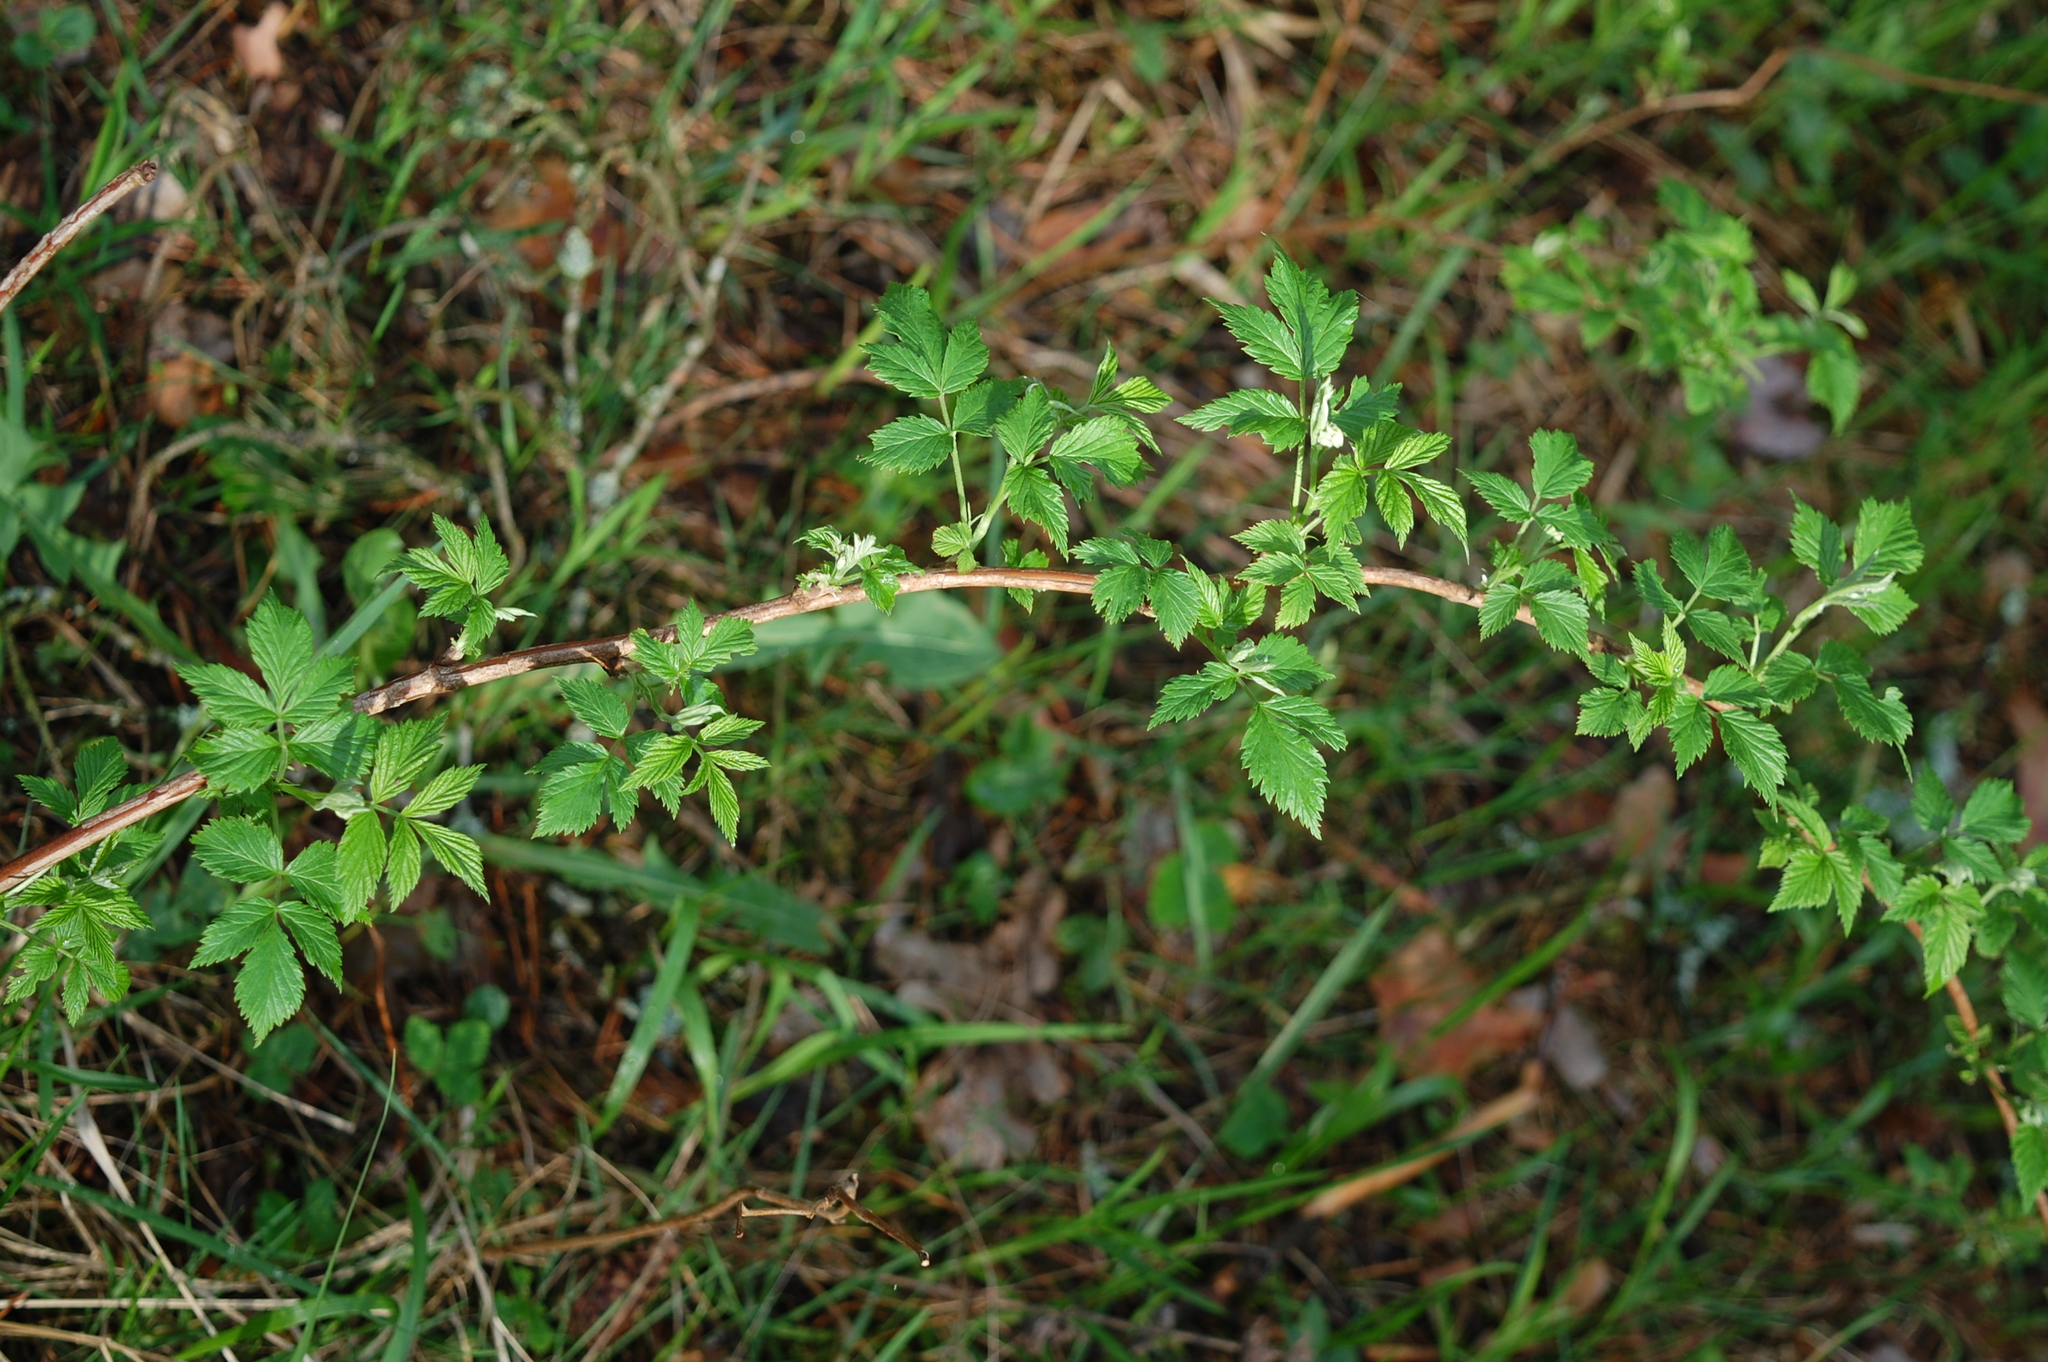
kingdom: Plantae
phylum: Tracheophyta
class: Magnoliopsida
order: Rosales
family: Rosaceae
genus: Rubus
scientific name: Rubus idaeus
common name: Raspberry
